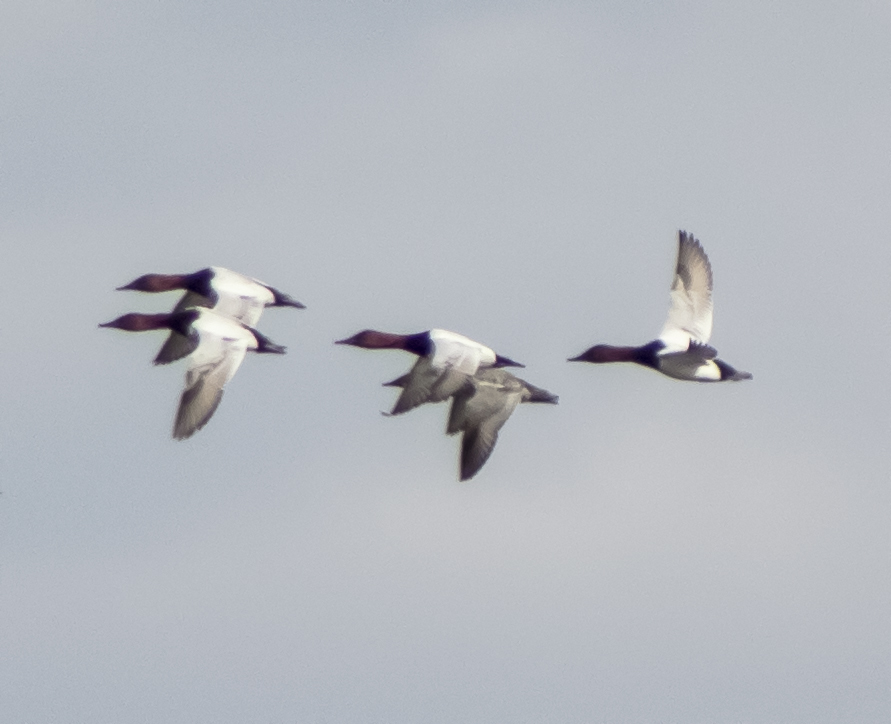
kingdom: Animalia
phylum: Chordata
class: Aves
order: Anseriformes
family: Anatidae
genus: Aythya
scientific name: Aythya valisineria
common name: Canvasback
